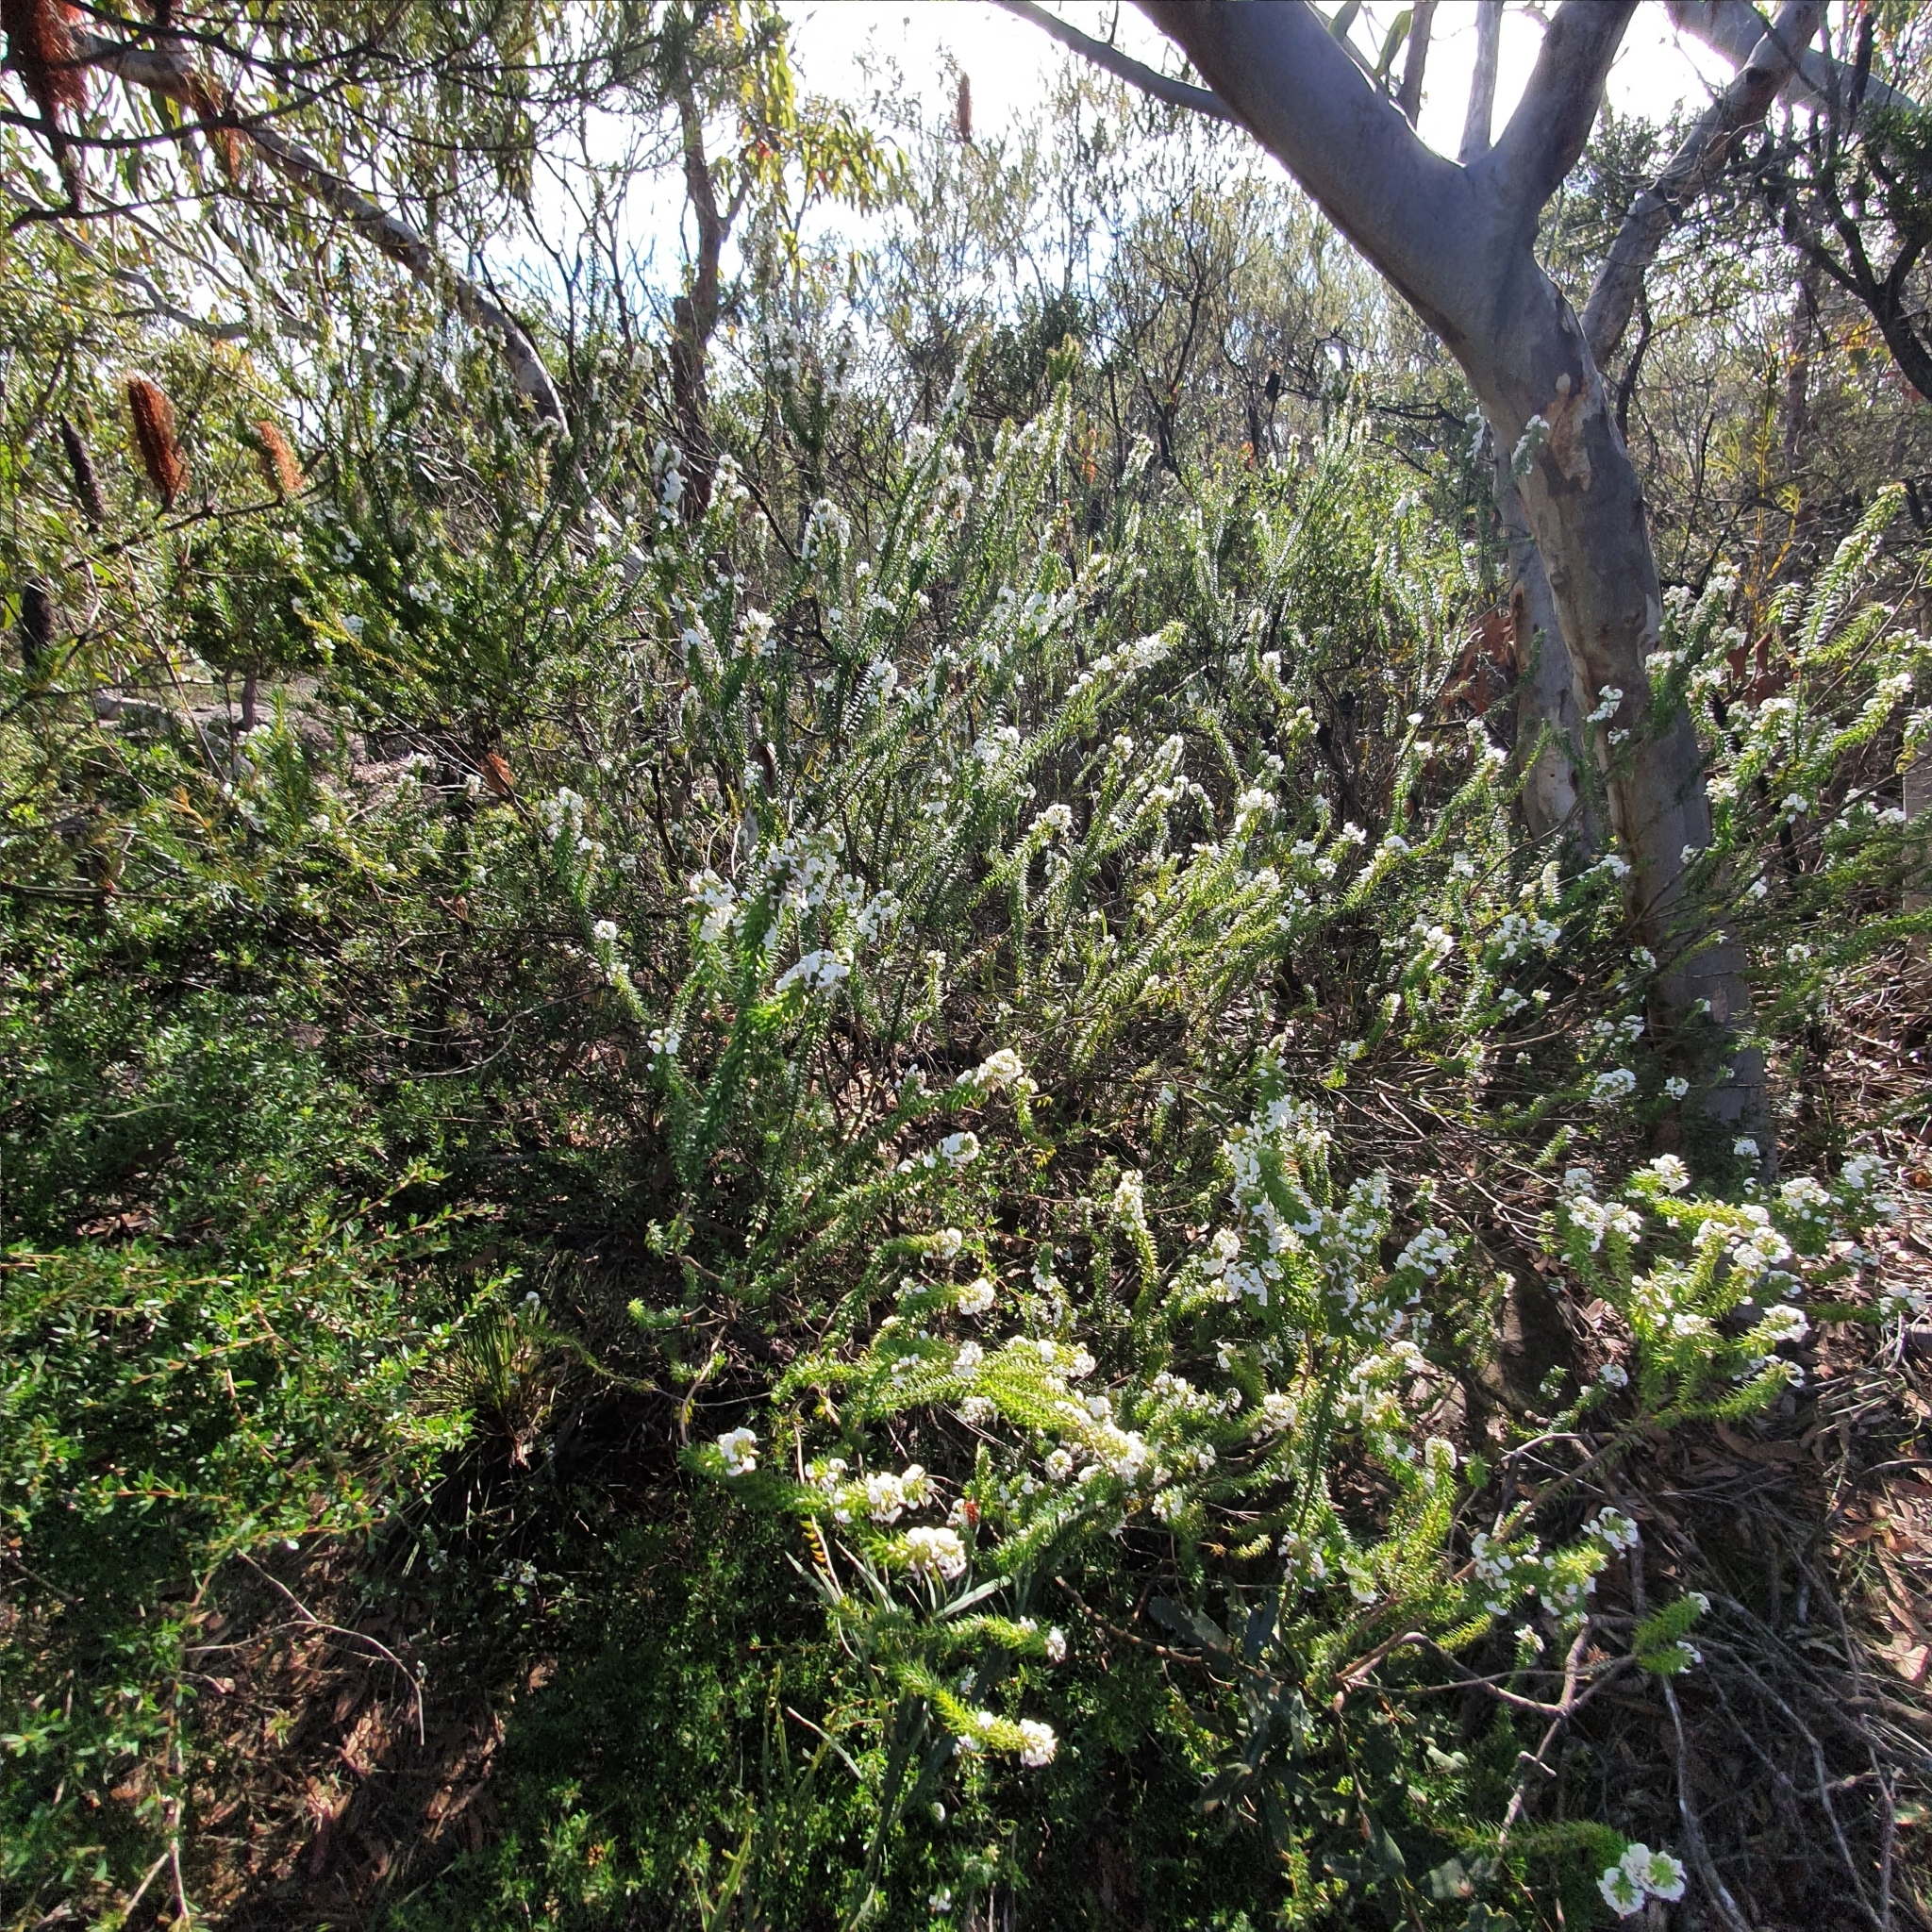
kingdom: Plantae
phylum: Tracheophyta
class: Magnoliopsida
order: Ericales
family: Ericaceae
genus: Woollsia
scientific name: Woollsia pungens
